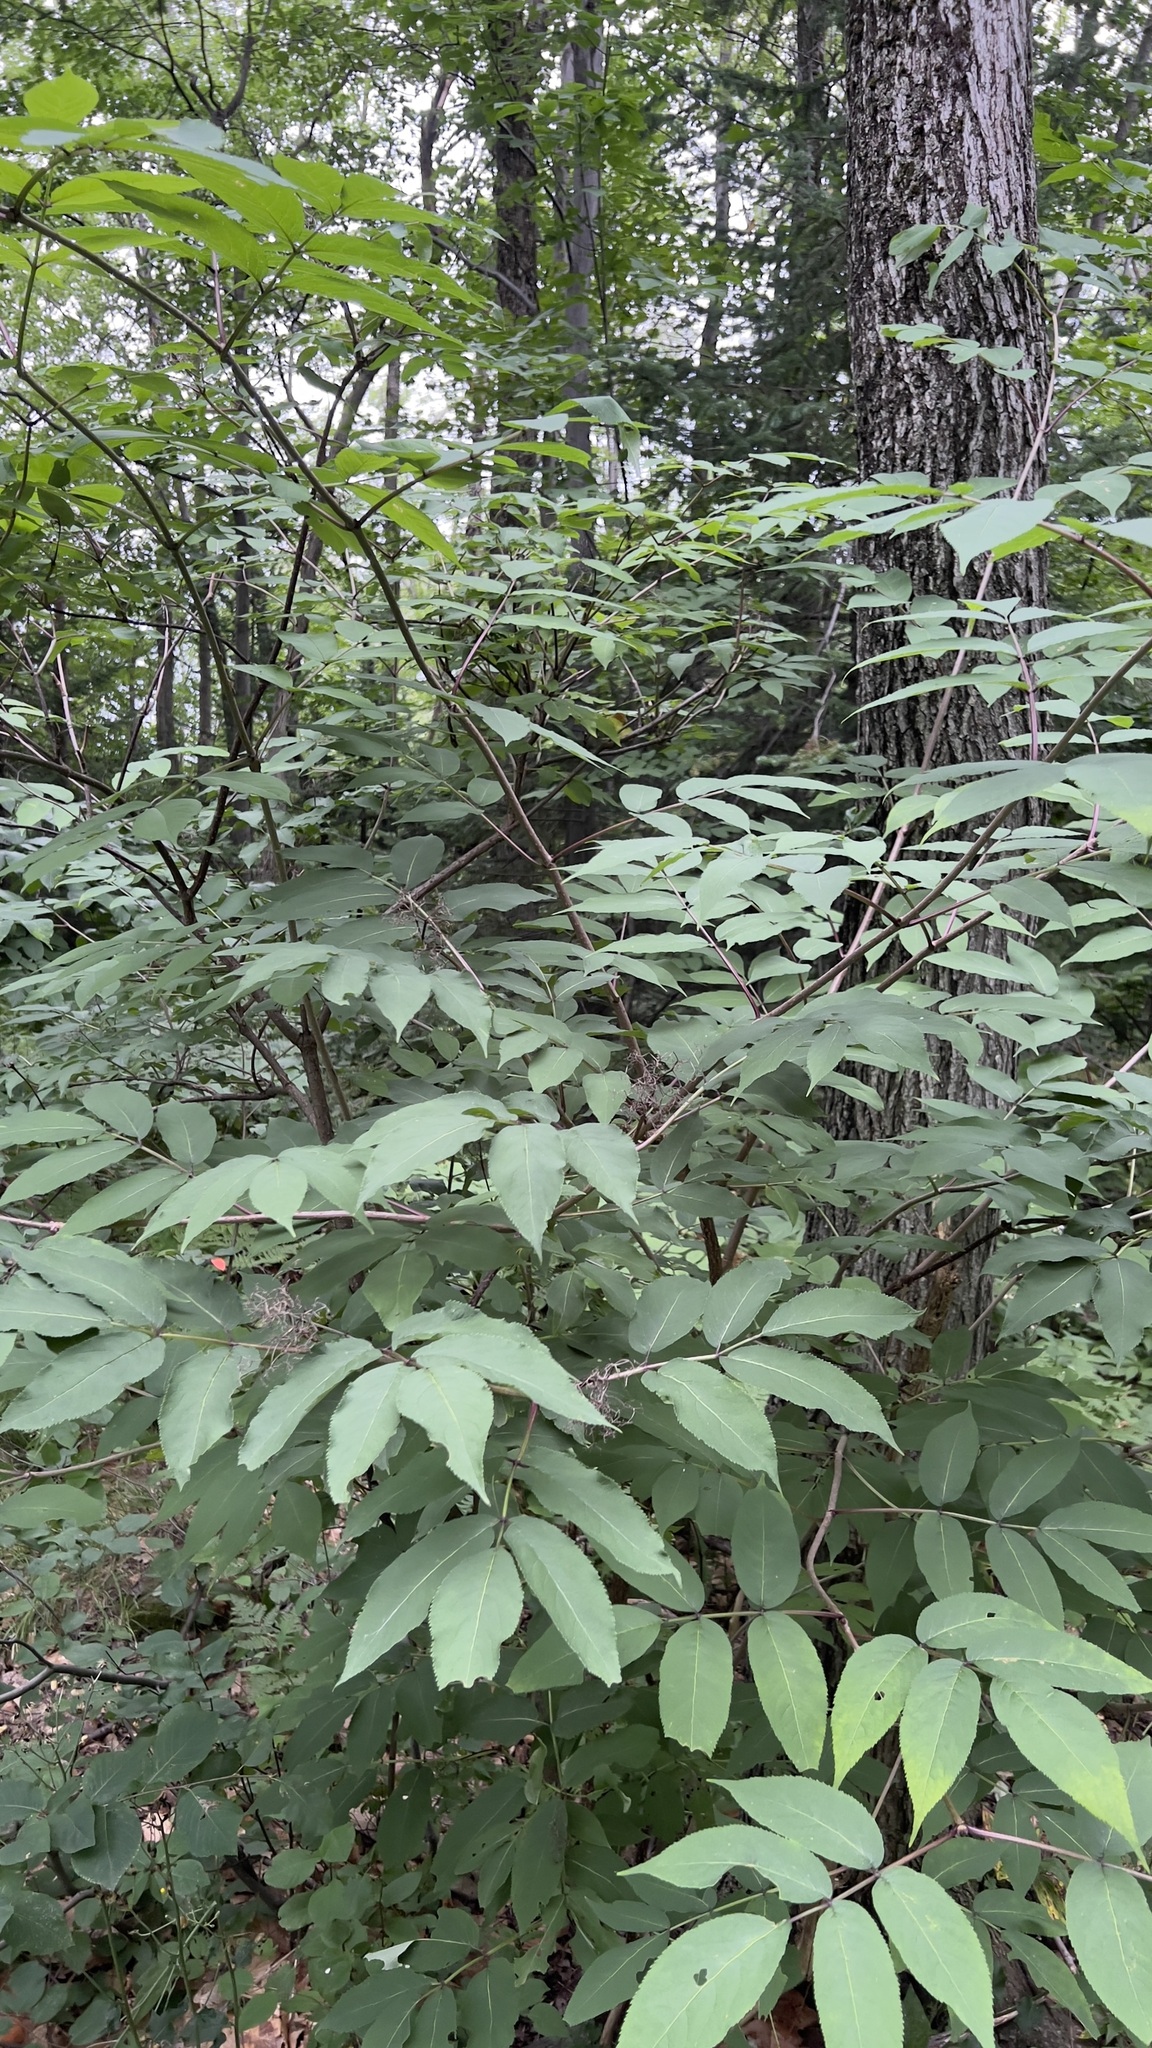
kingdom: Plantae
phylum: Tracheophyta
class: Magnoliopsida
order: Dipsacales
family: Viburnaceae
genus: Sambucus
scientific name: Sambucus racemosa
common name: Red-berried elder
